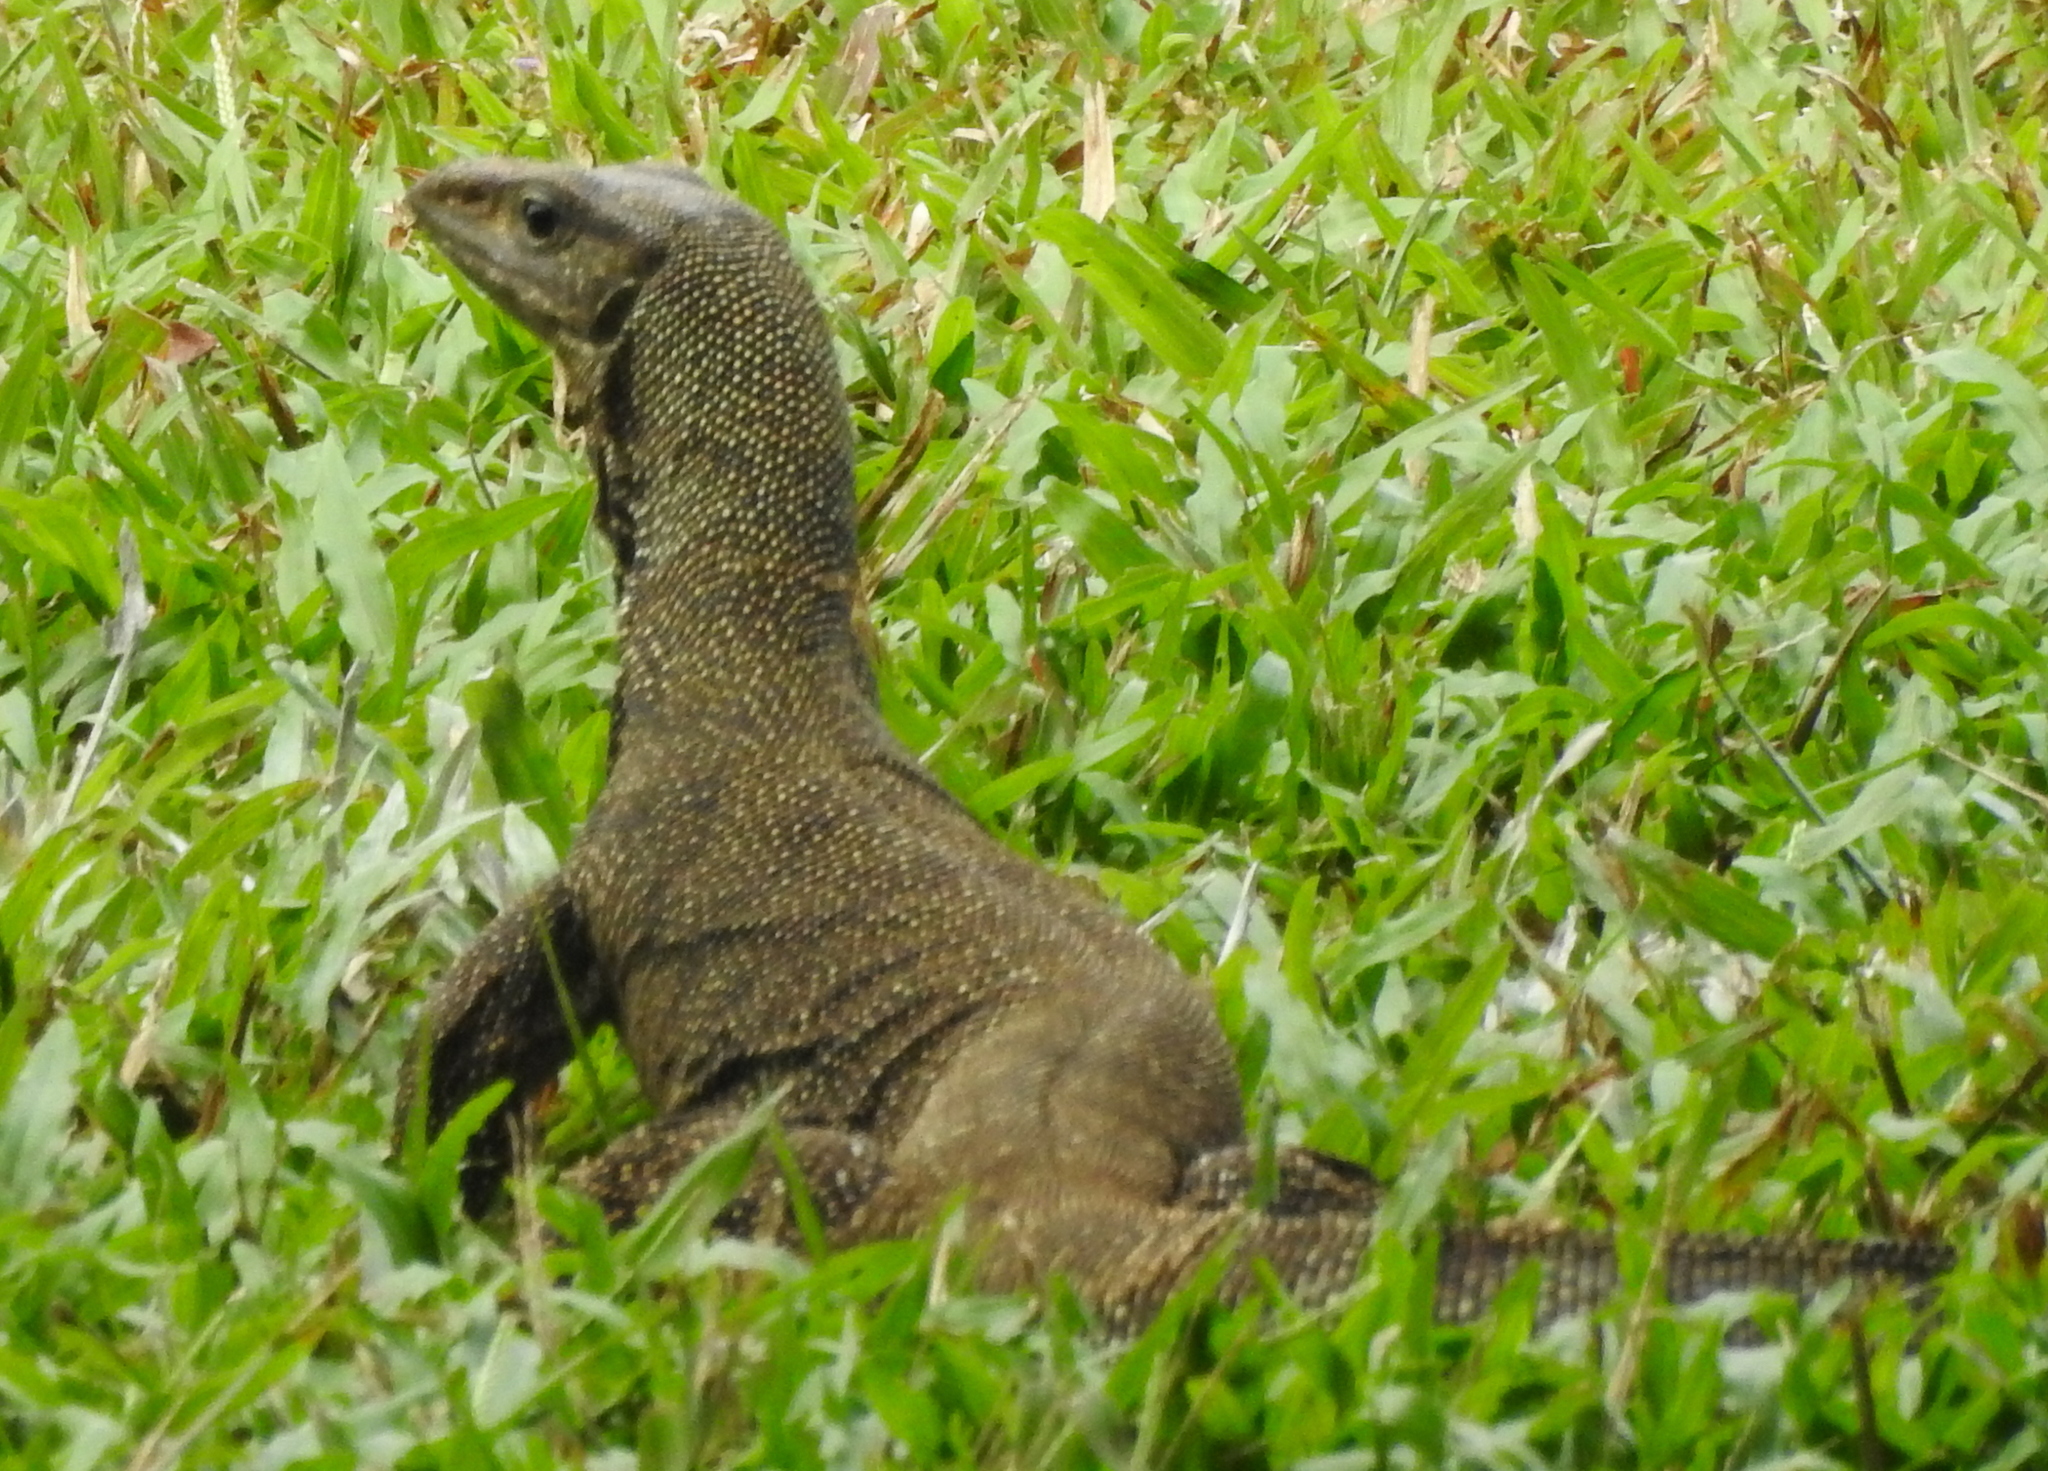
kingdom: Animalia
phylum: Chordata
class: Squamata
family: Varanidae
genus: Varanus
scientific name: Varanus nebulosus
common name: Clouded monitor
